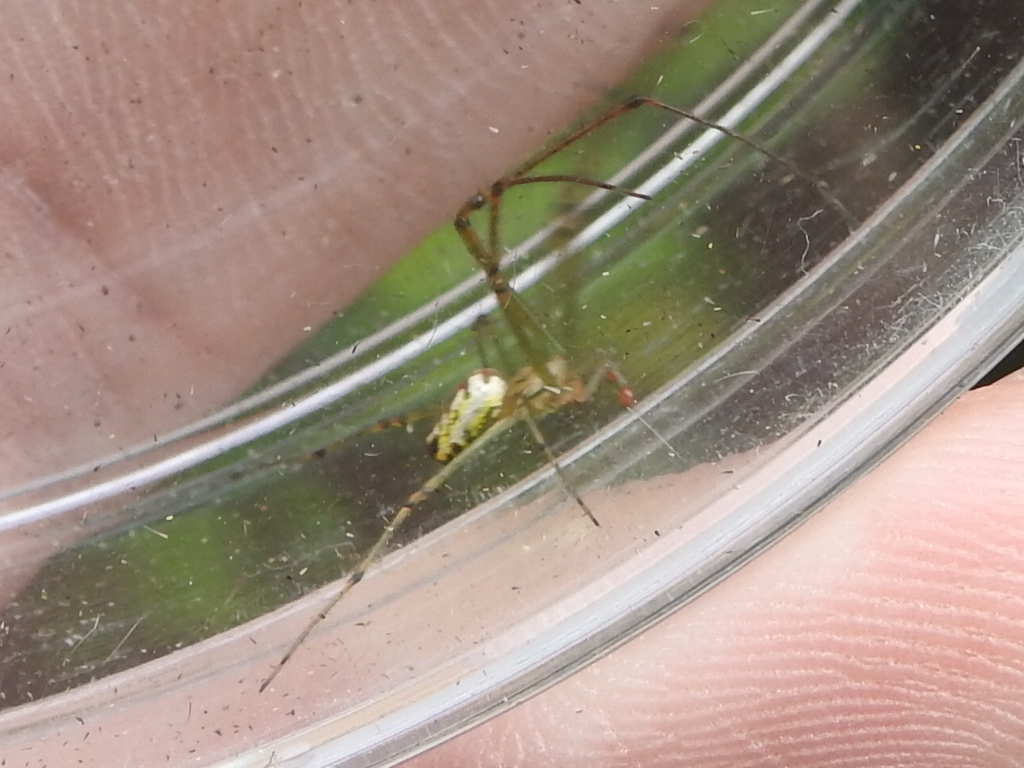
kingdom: Animalia
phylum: Arthropoda
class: Arachnida
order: Araneae
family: Tetragnathidae
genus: Leucauge
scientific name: Leucauge
